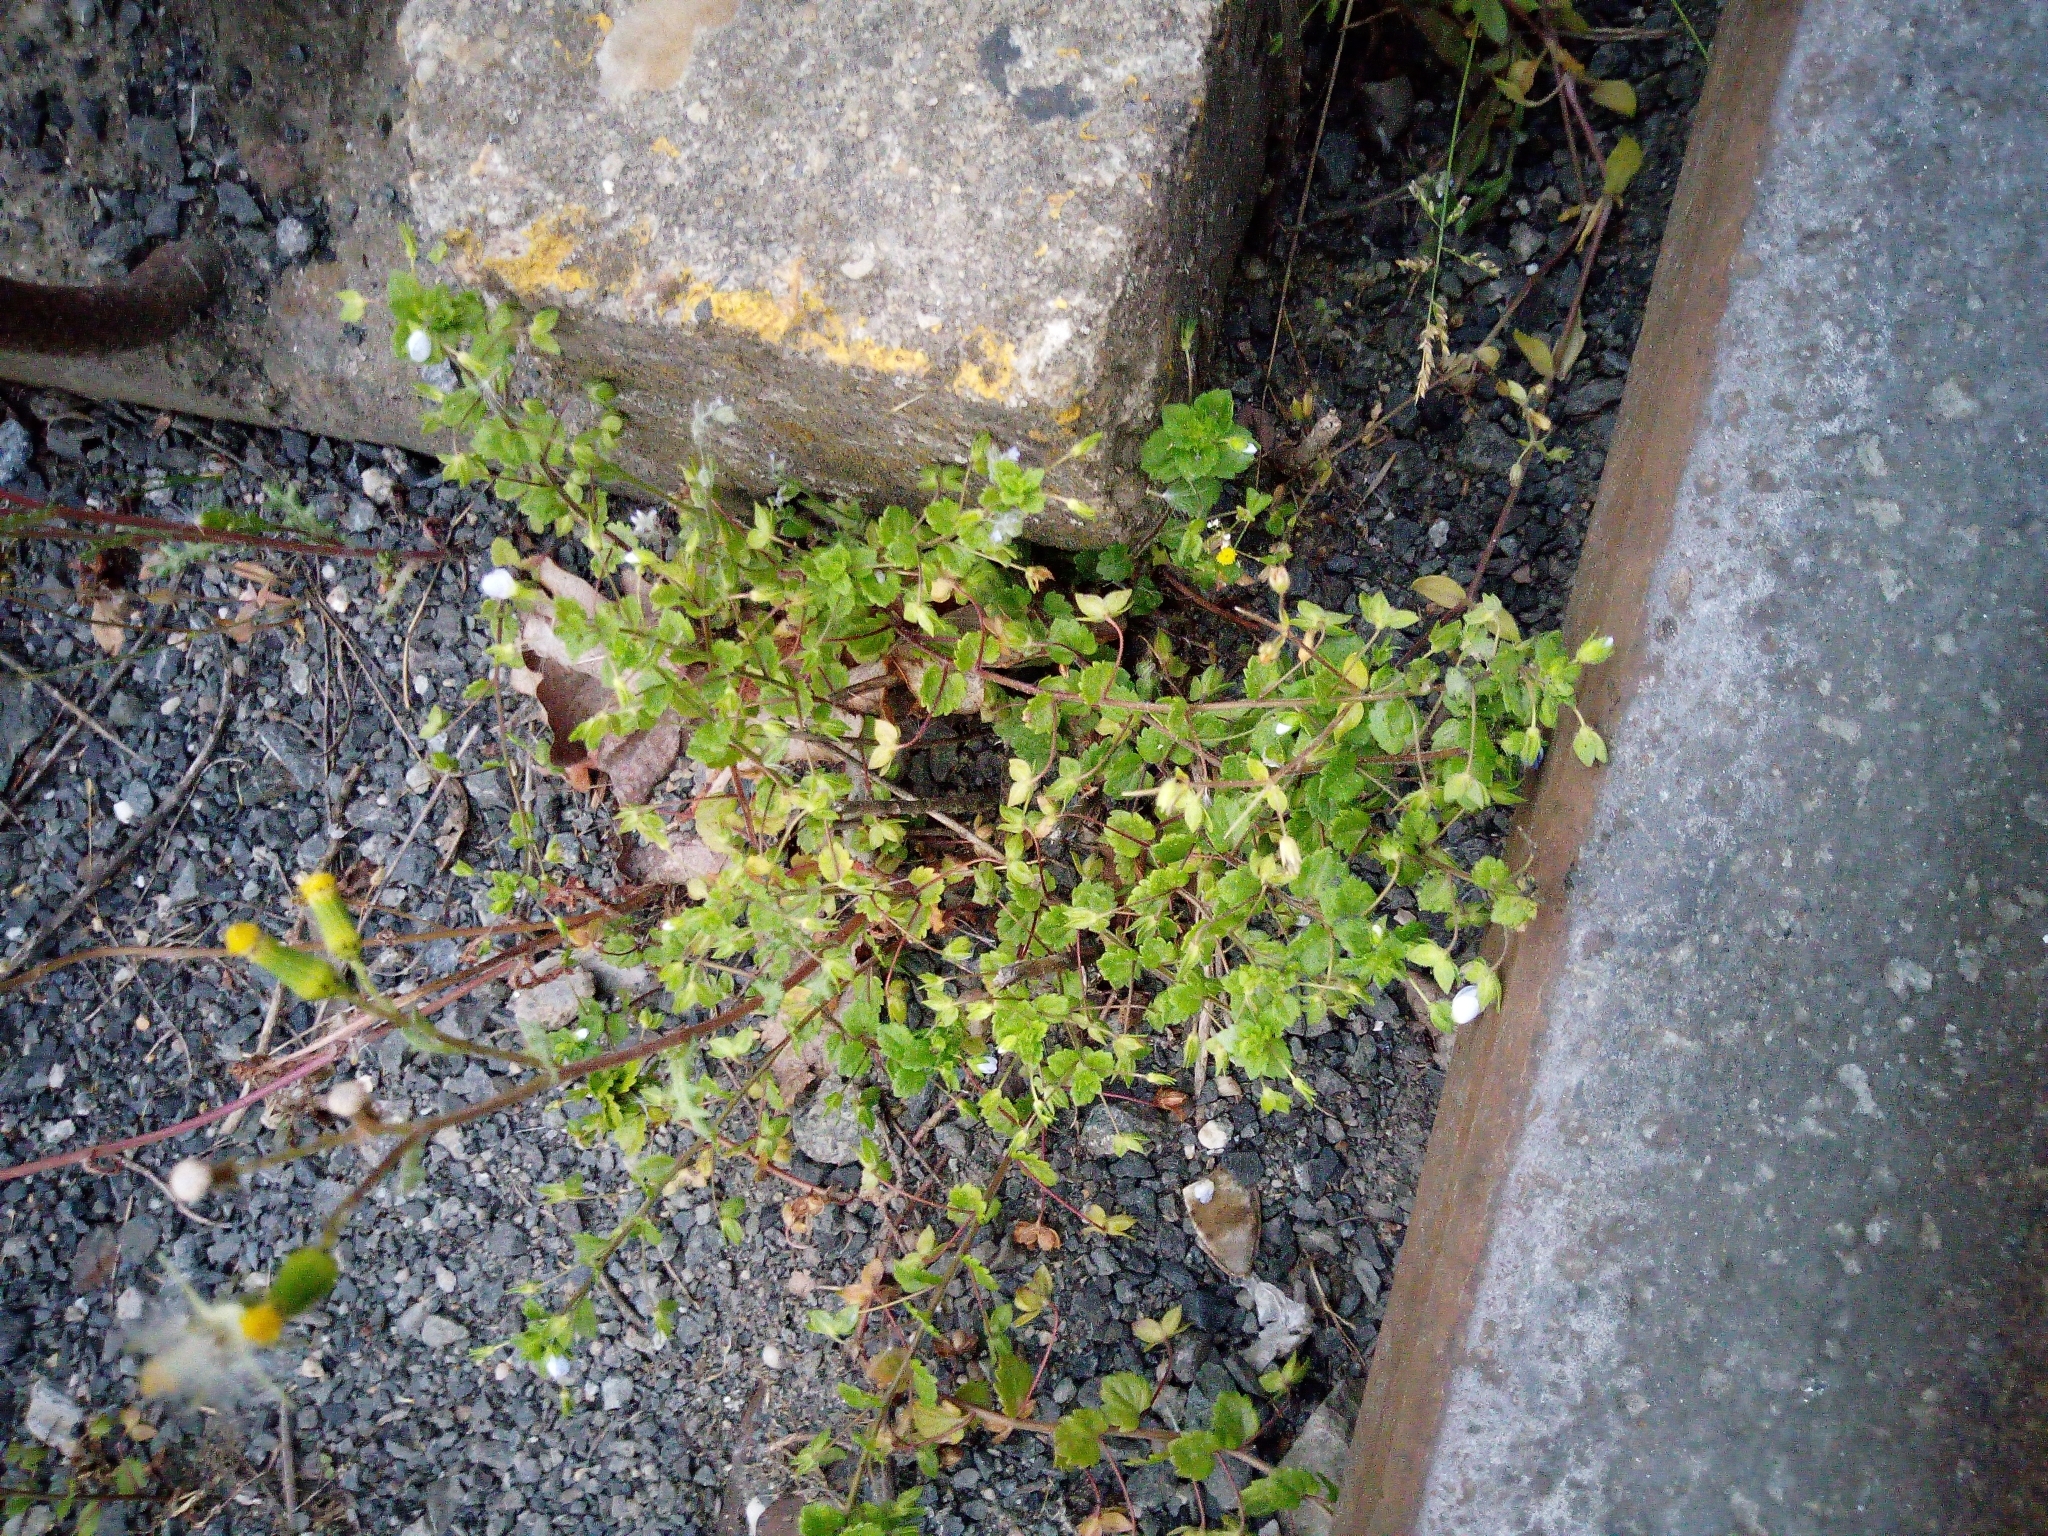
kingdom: Plantae
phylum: Tracheophyta
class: Magnoliopsida
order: Lamiales
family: Plantaginaceae
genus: Veronica
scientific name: Veronica persica
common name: Common field-speedwell
